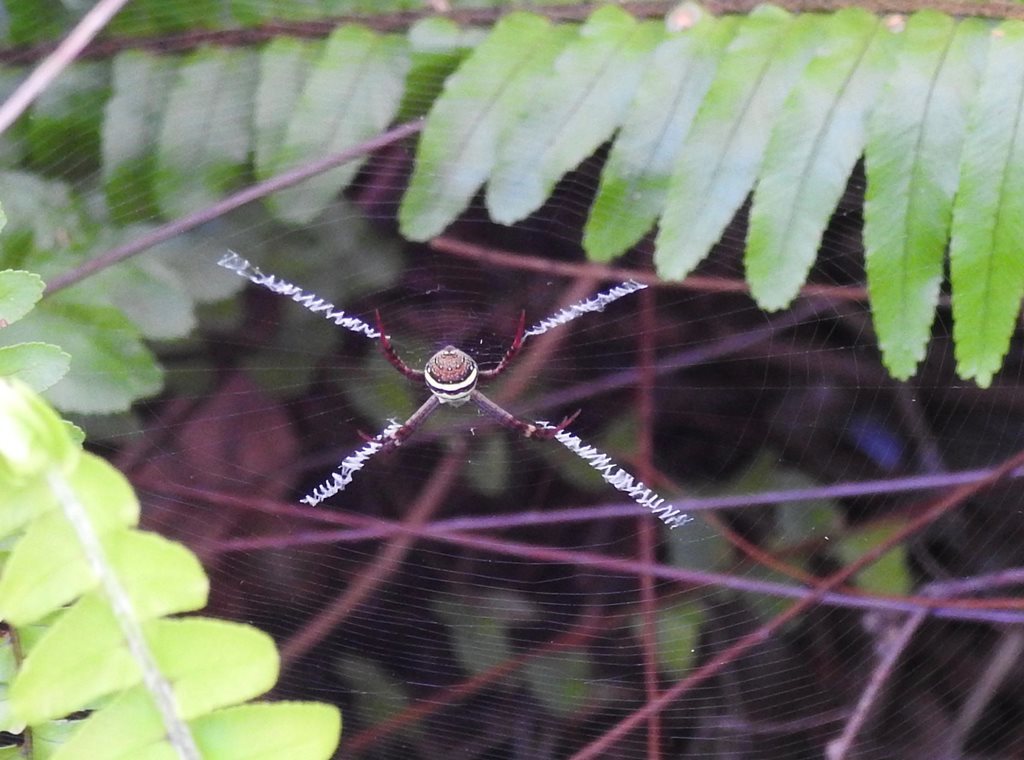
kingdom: Animalia
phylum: Arthropoda
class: Arachnida
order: Araneae
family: Araneidae
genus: Argiope
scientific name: Argiope keyserlingi
